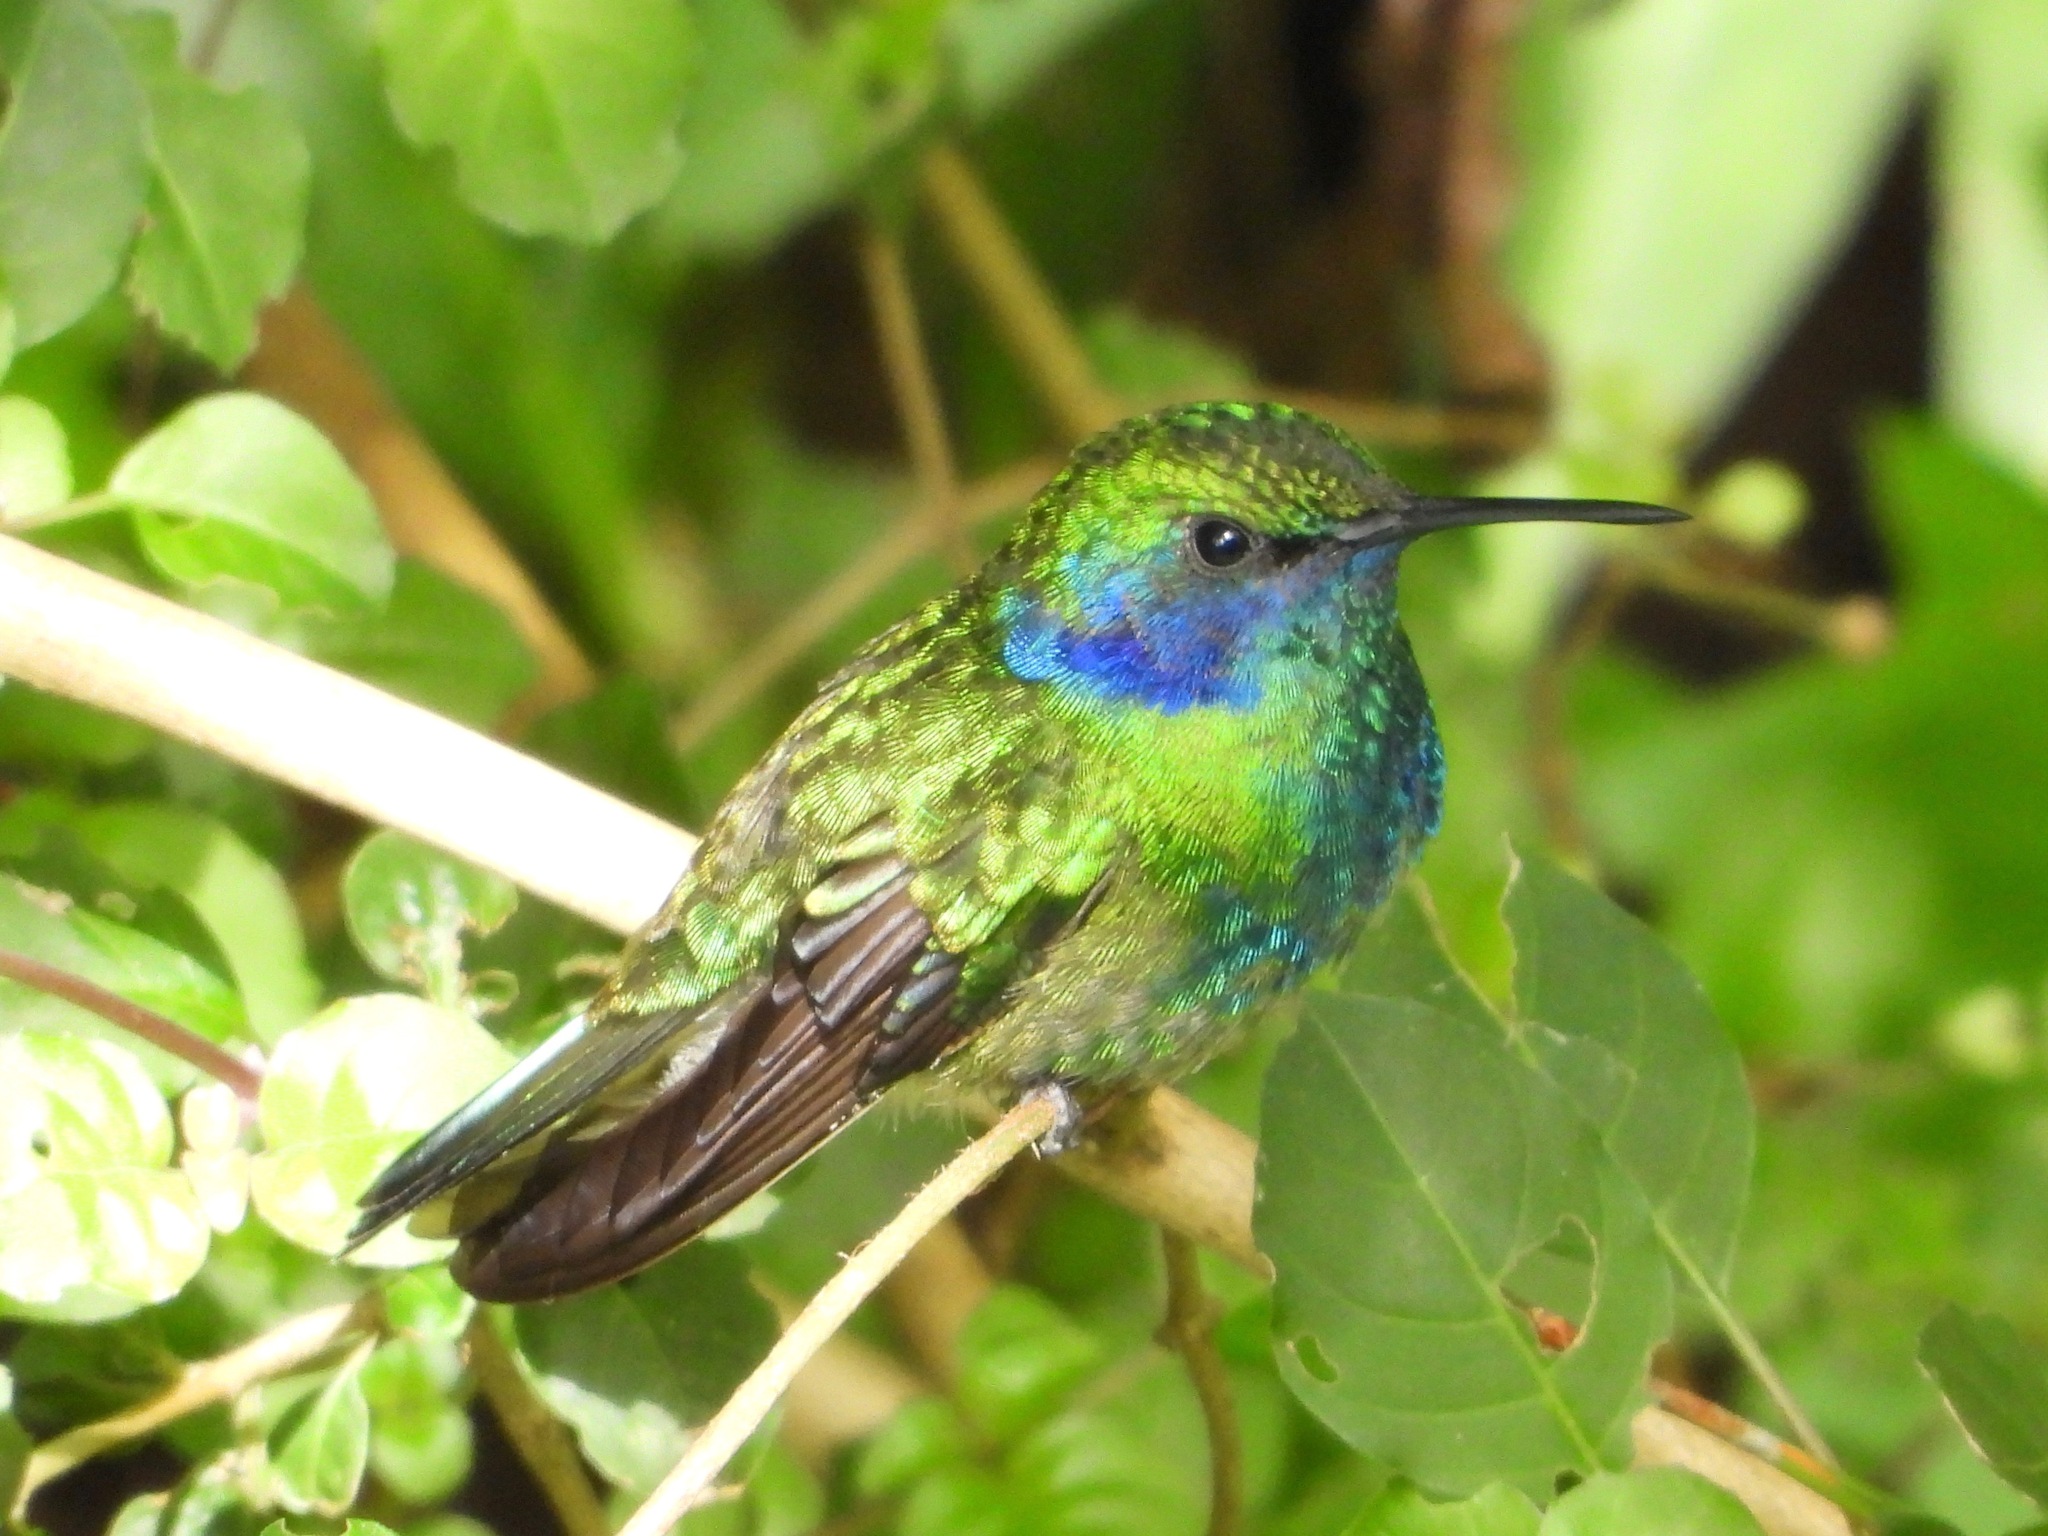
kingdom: Animalia
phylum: Chordata
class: Aves
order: Apodiformes
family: Trochilidae
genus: Colibri
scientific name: Colibri thalassinus
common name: Green violetear
